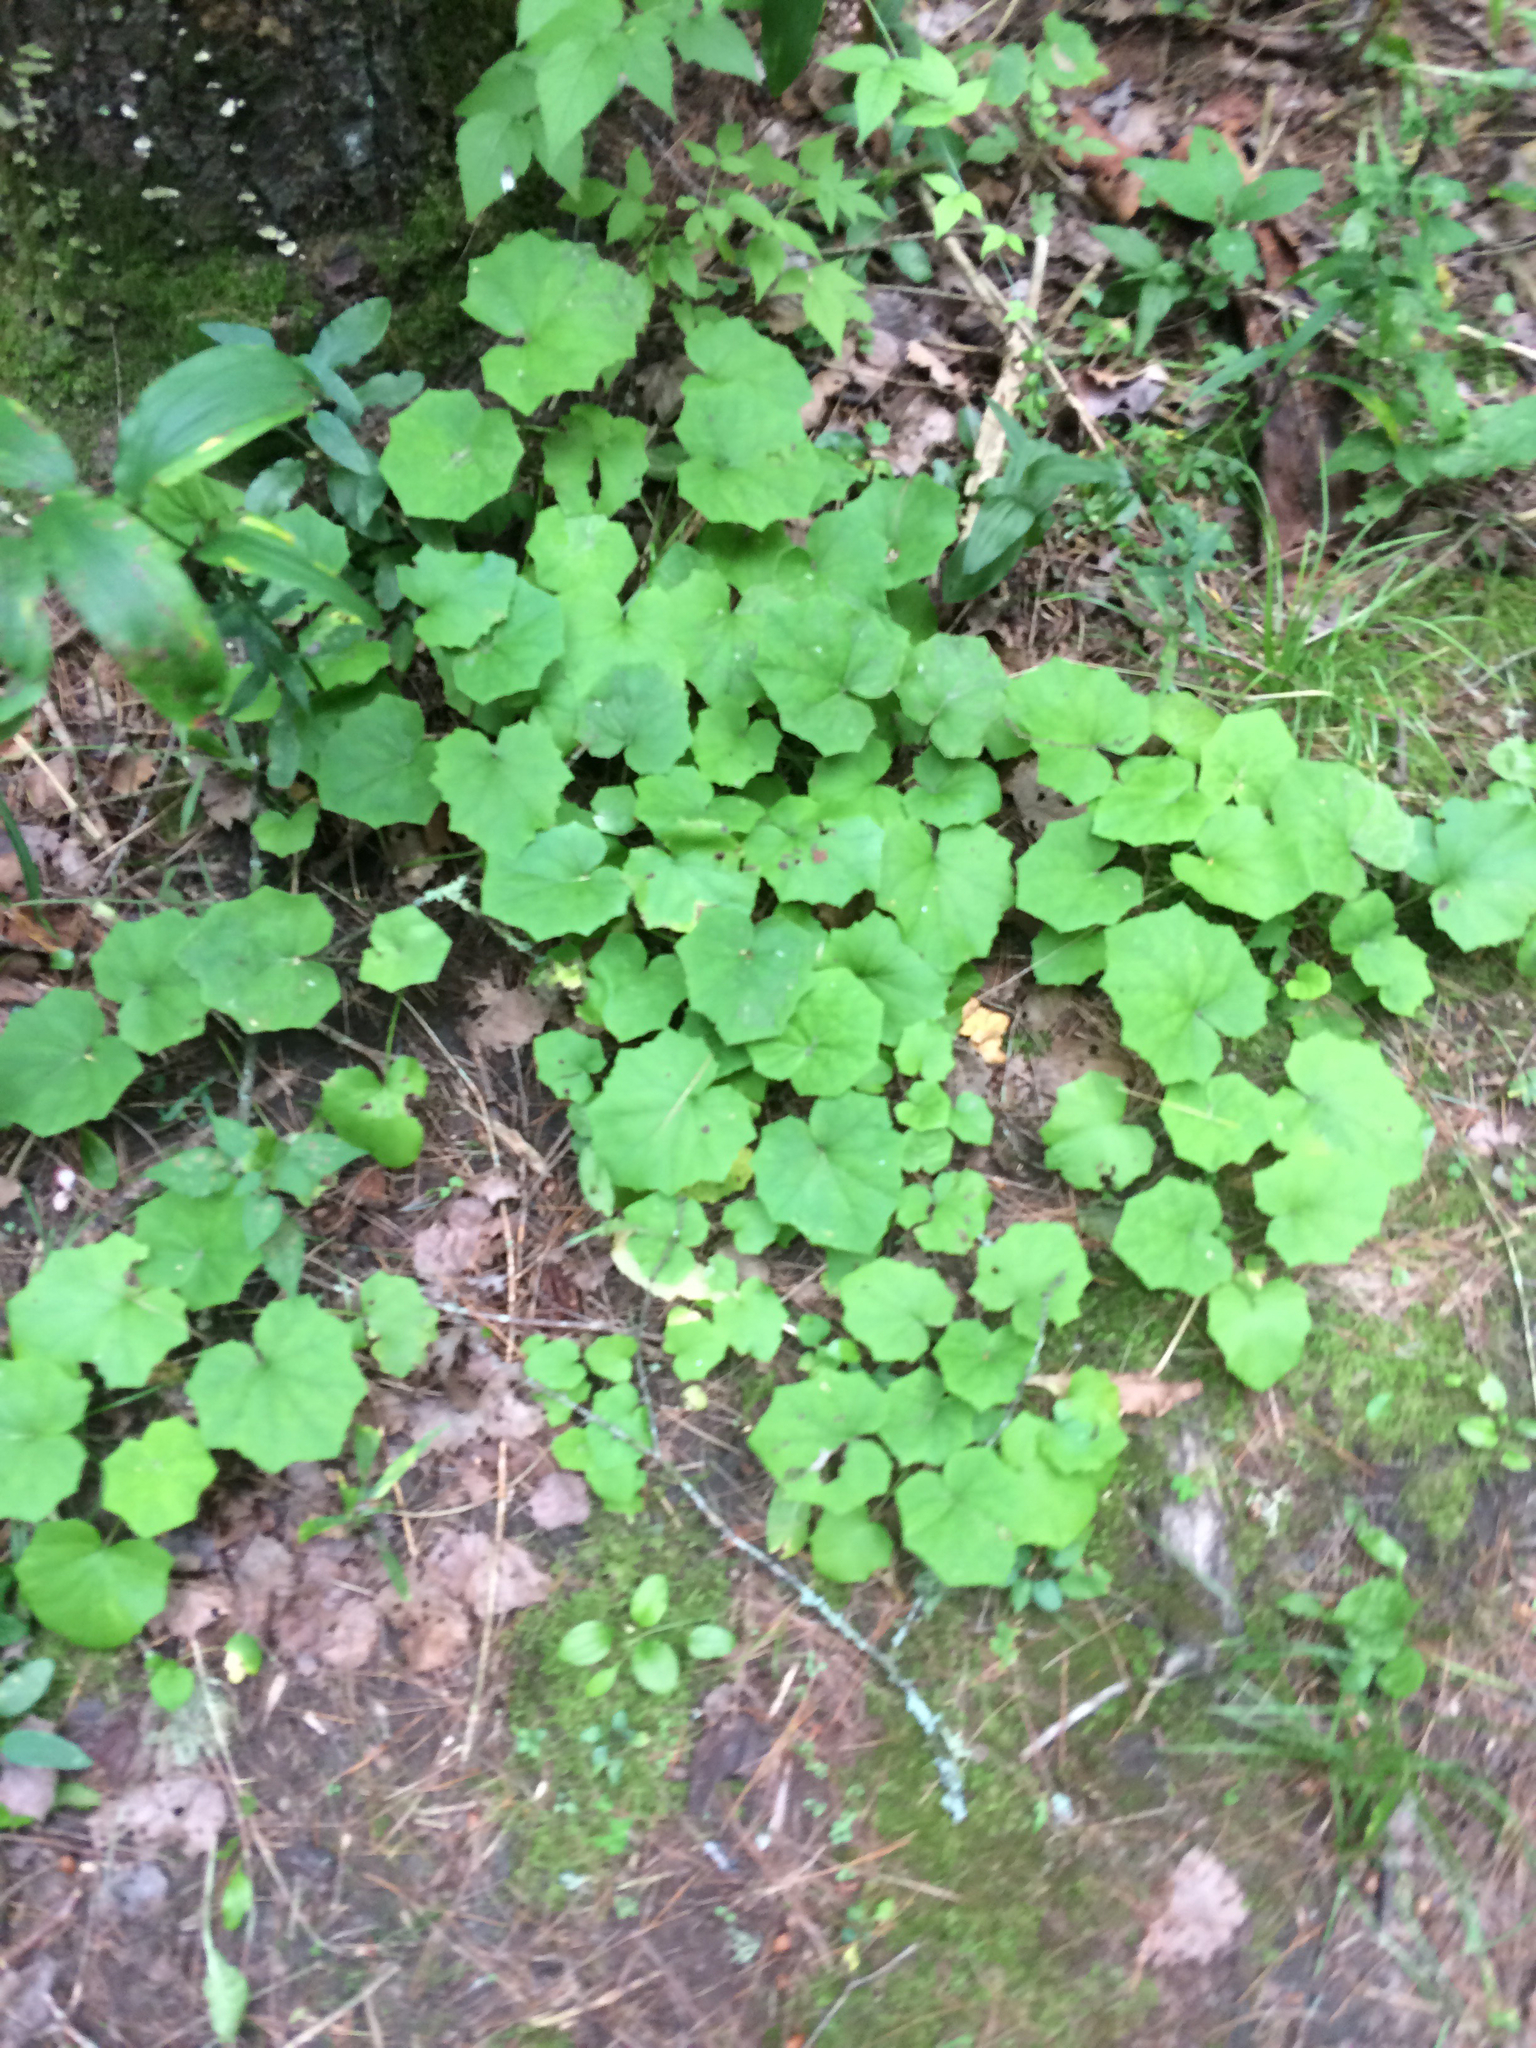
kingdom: Plantae
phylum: Tracheophyta
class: Magnoliopsida
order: Asterales
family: Asteraceae
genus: Tussilago
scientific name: Tussilago farfara
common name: Coltsfoot
